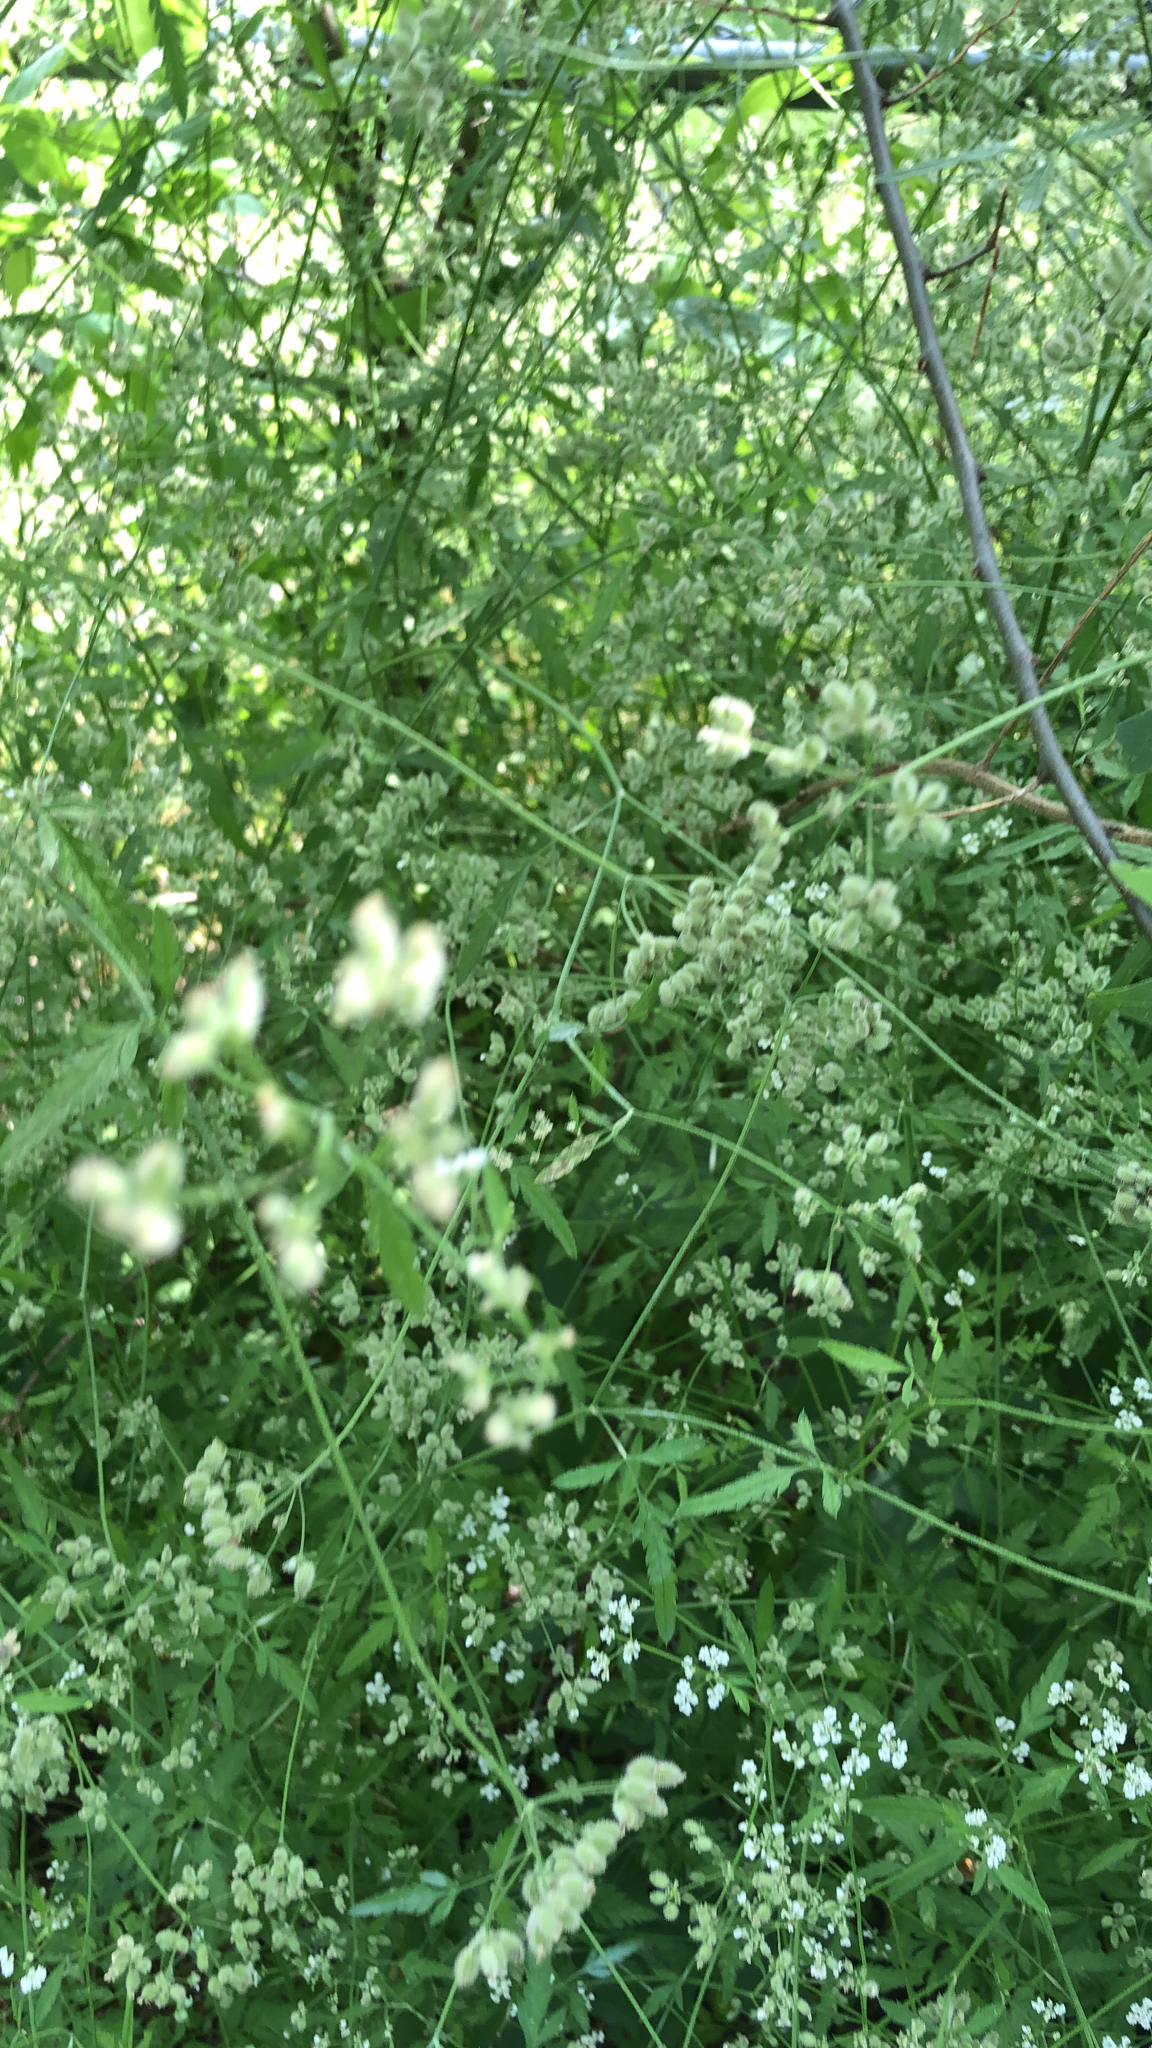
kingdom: Plantae
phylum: Tracheophyta
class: Magnoliopsida
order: Apiales
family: Apiaceae
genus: Torilis
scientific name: Torilis arvensis
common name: Spreading hedge-parsley
